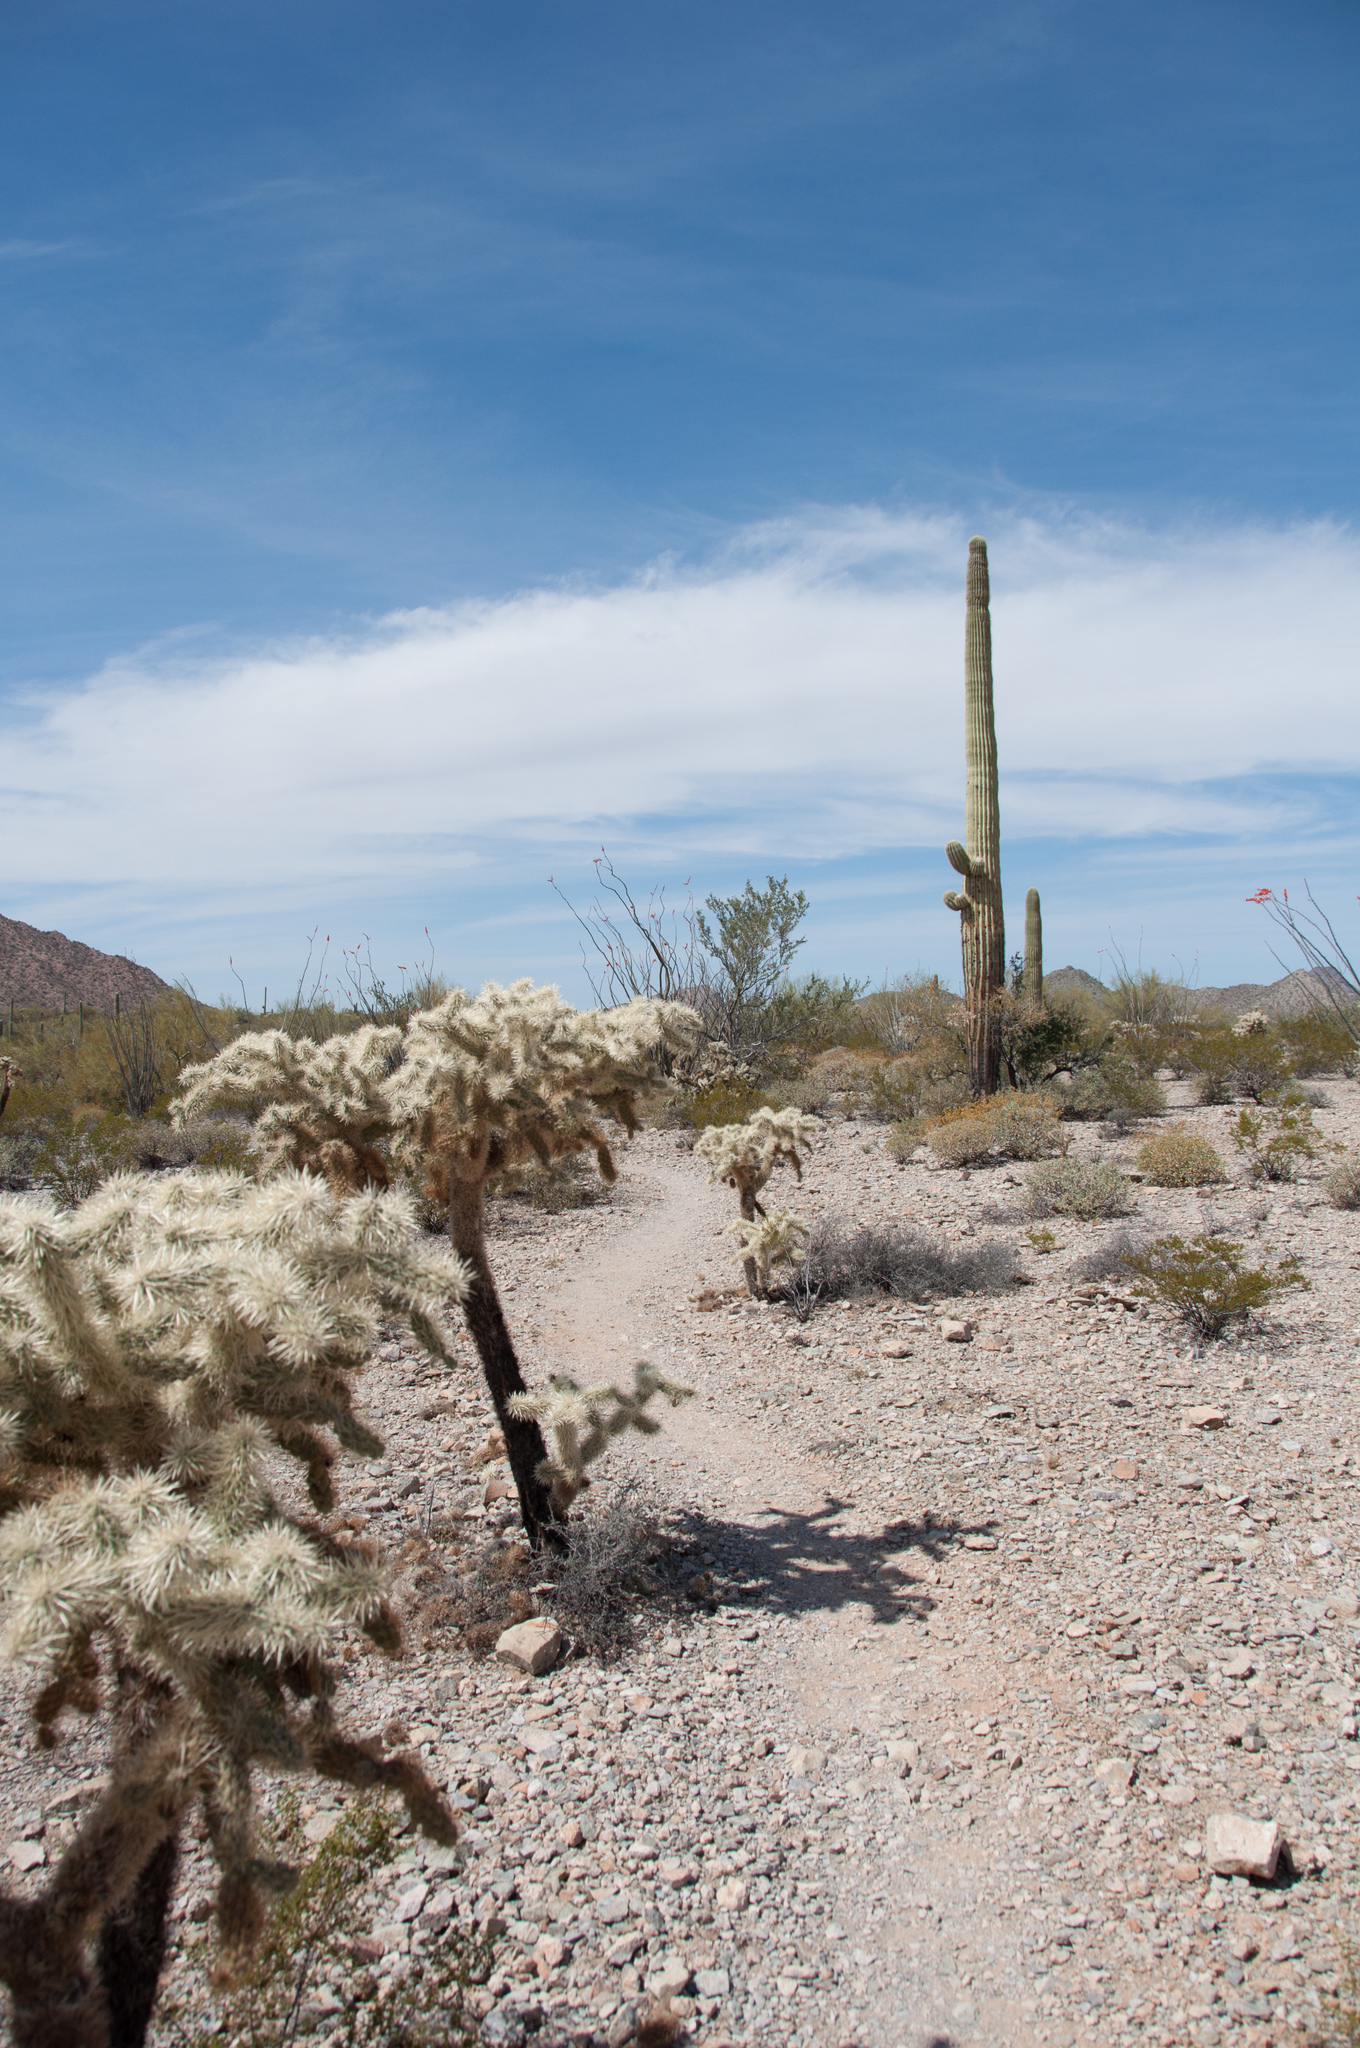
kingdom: Plantae
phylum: Tracheophyta
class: Magnoliopsida
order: Caryophyllales
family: Cactaceae
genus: Cylindropuntia
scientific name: Cylindropuntia fosbergii
